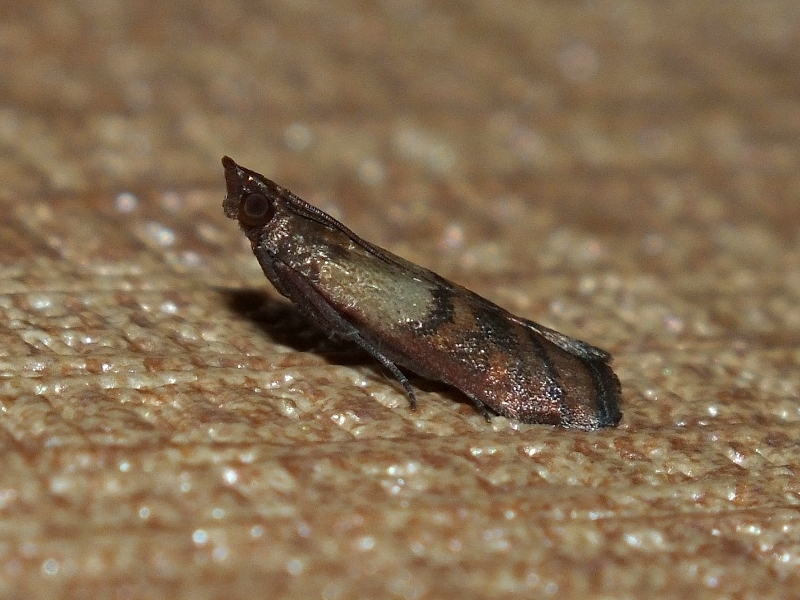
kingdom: Animalia
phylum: Arthropoda
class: Insecta
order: Lepidoptera
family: Pyralidae
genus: Plodia
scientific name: Plodia interpunctella
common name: Indian meal moth
